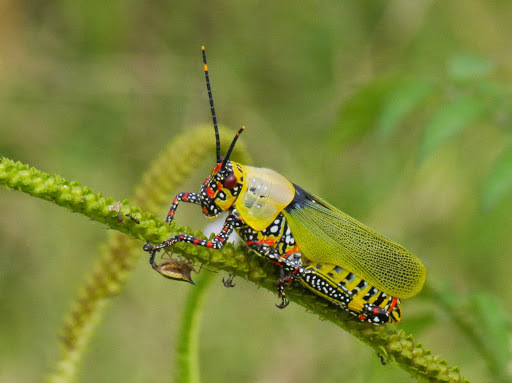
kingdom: Animalia
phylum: Arthropoda
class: Insecta
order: Orthoptera
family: Pyrgomorphidae
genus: Zonocerus
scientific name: Zonocerus variegatus
